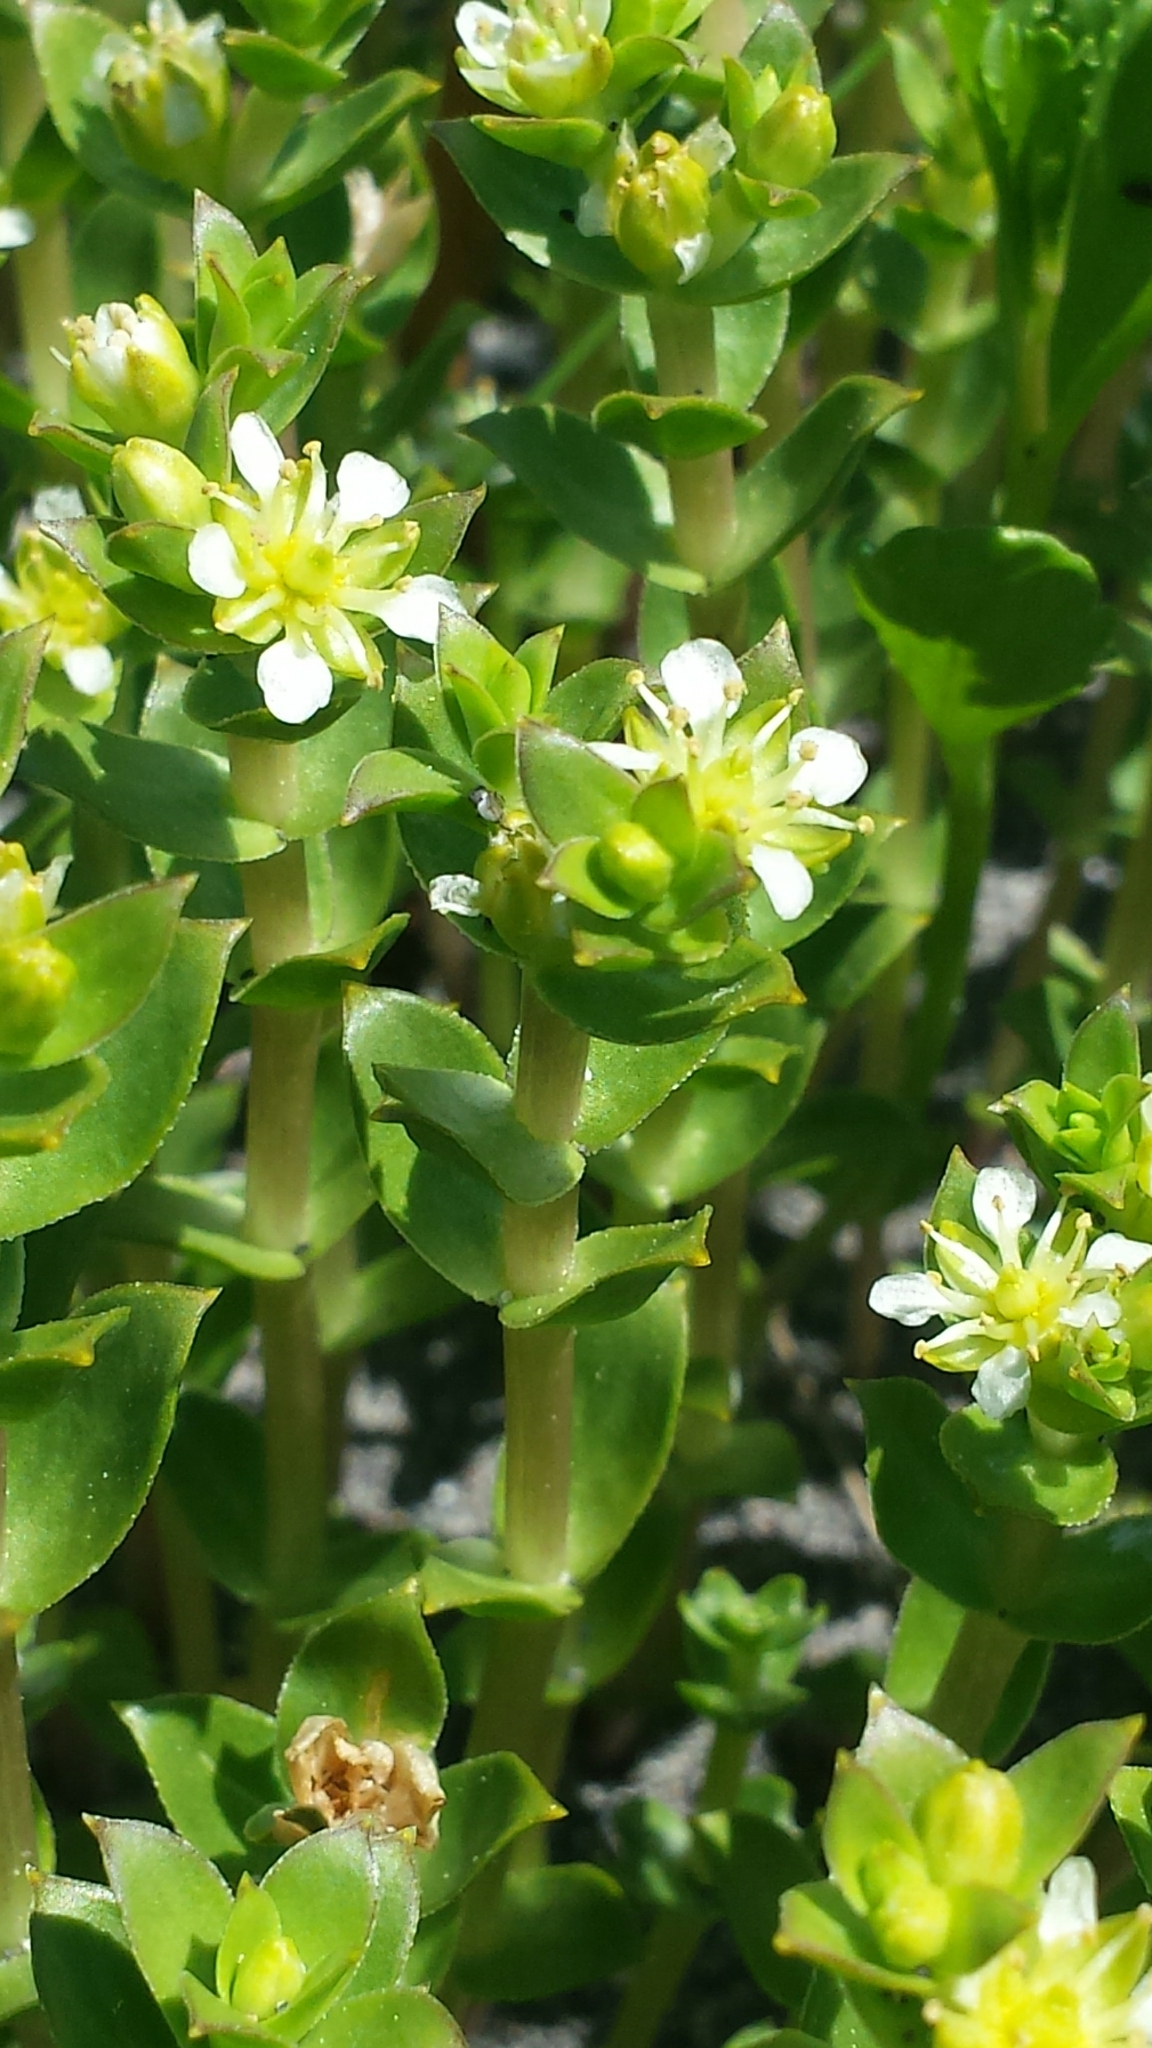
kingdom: Plantae
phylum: Tracheophyta
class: Magnoliopsida
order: Caryophyllales
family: Caryophyllaceae
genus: Honckenya
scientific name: Honckenya peploides
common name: Sea sandwort
